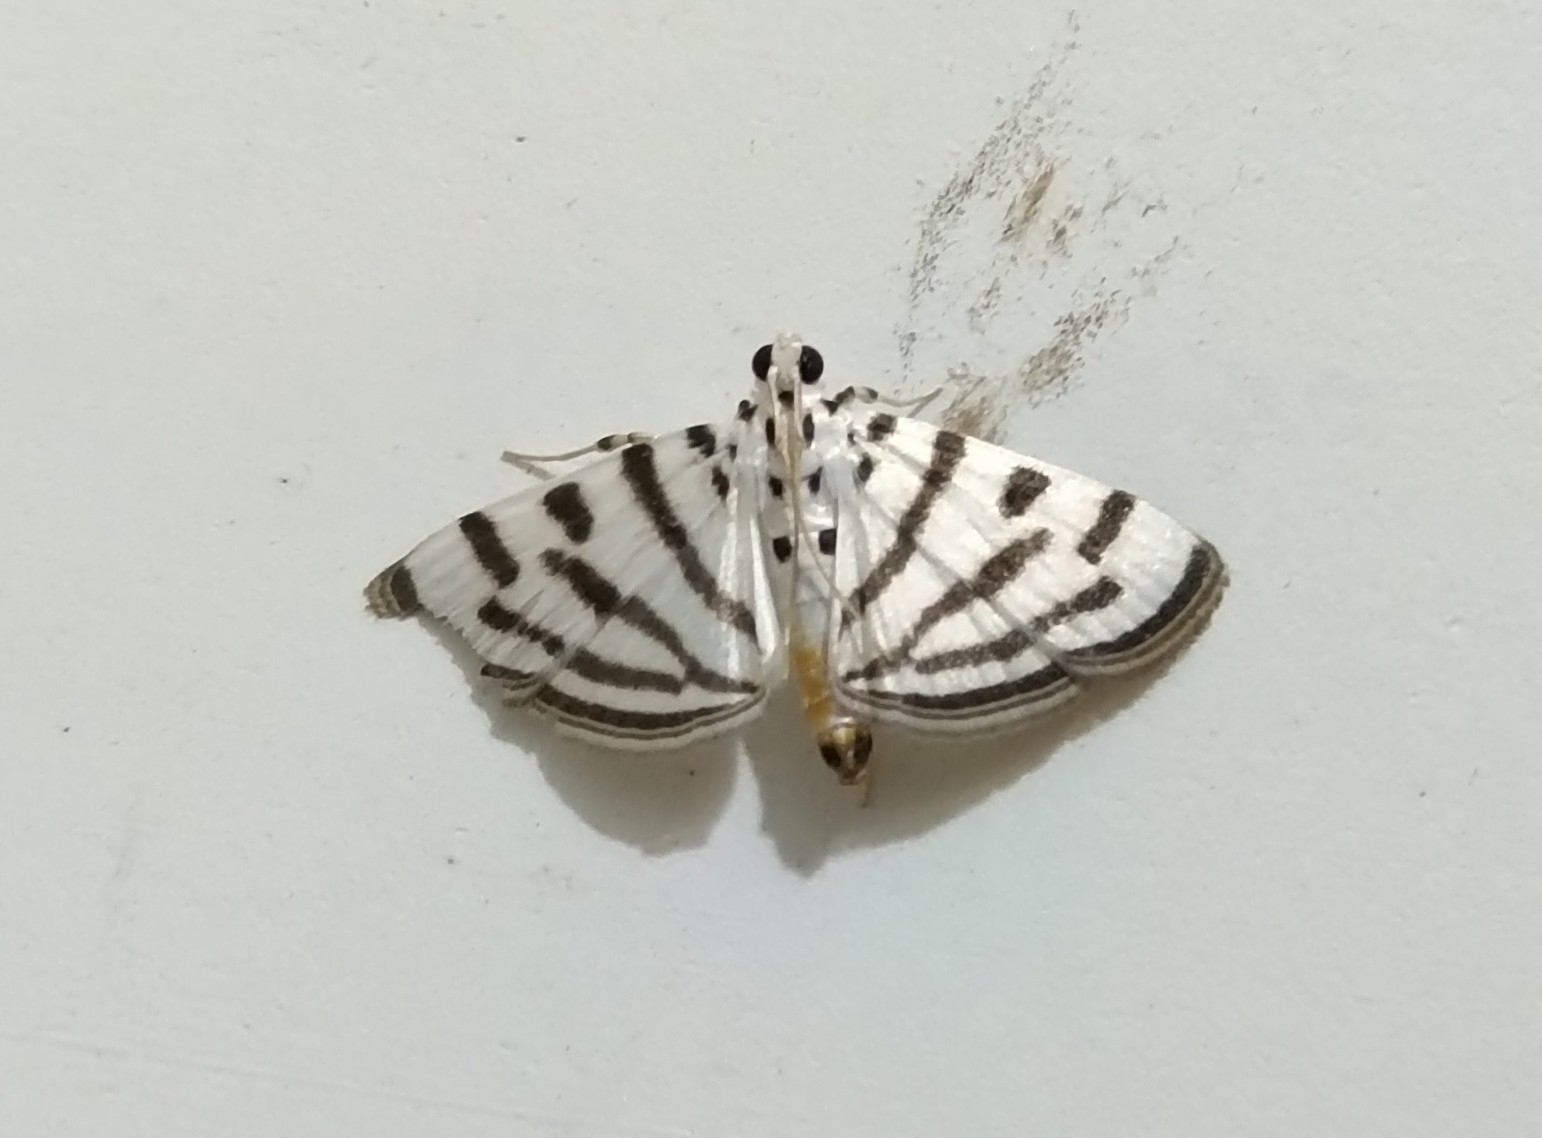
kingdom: Animalia
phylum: Arthropoda
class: Insecta
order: Lepidoptera
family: Crambidae
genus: Pycnarmon
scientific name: Pycnarmon virgatalis
